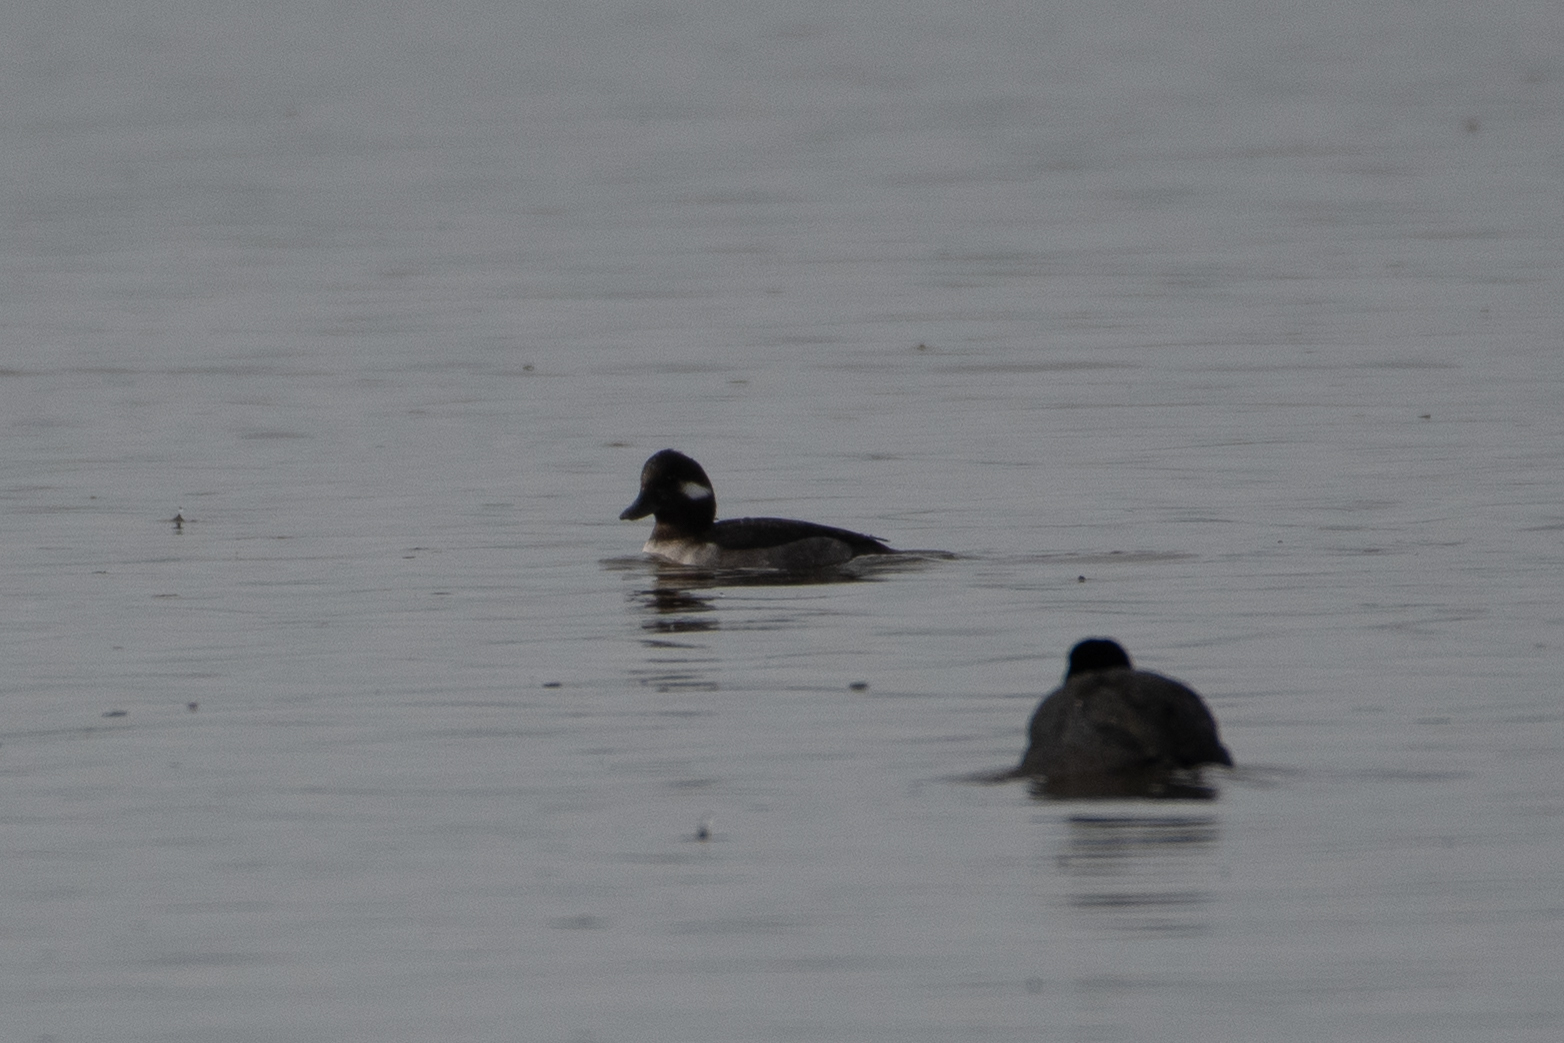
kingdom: Animalia
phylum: Chordata
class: Aves
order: Anseriformes
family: Anatidae
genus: Bucephala
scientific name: Bucephala albeola
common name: Bufflehead
